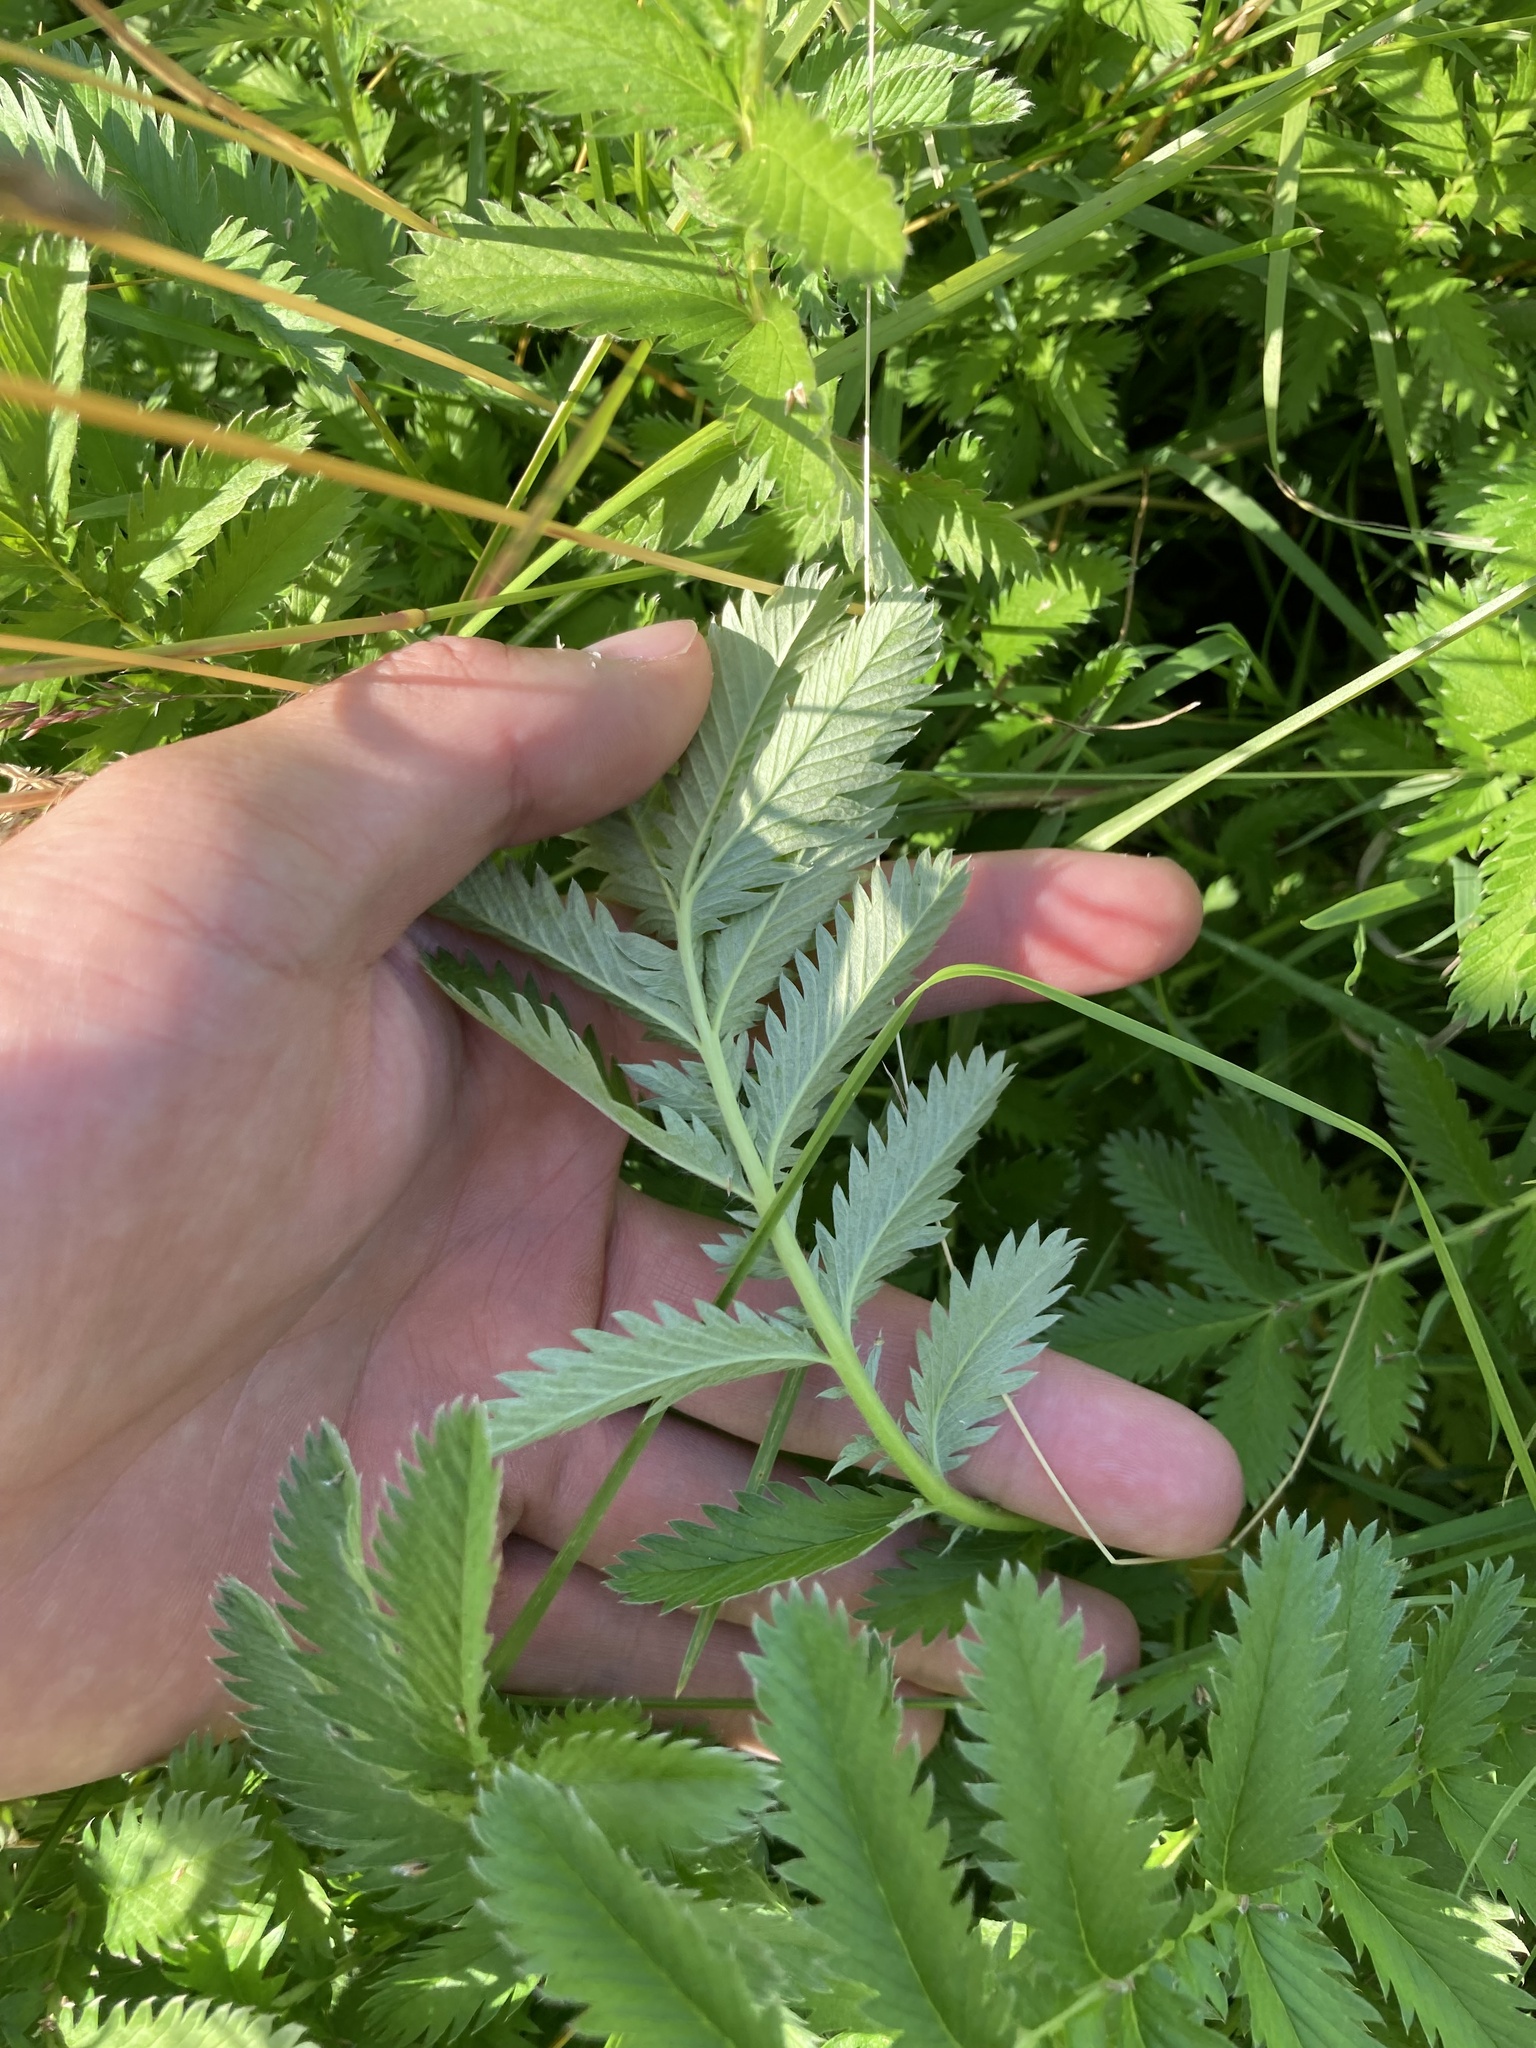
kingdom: Plantae
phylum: Tracheophyta
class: Magnoliopsida
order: Rosales
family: Rosaceae
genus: Argentina
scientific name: Argentina anserina
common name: Common silverweed
